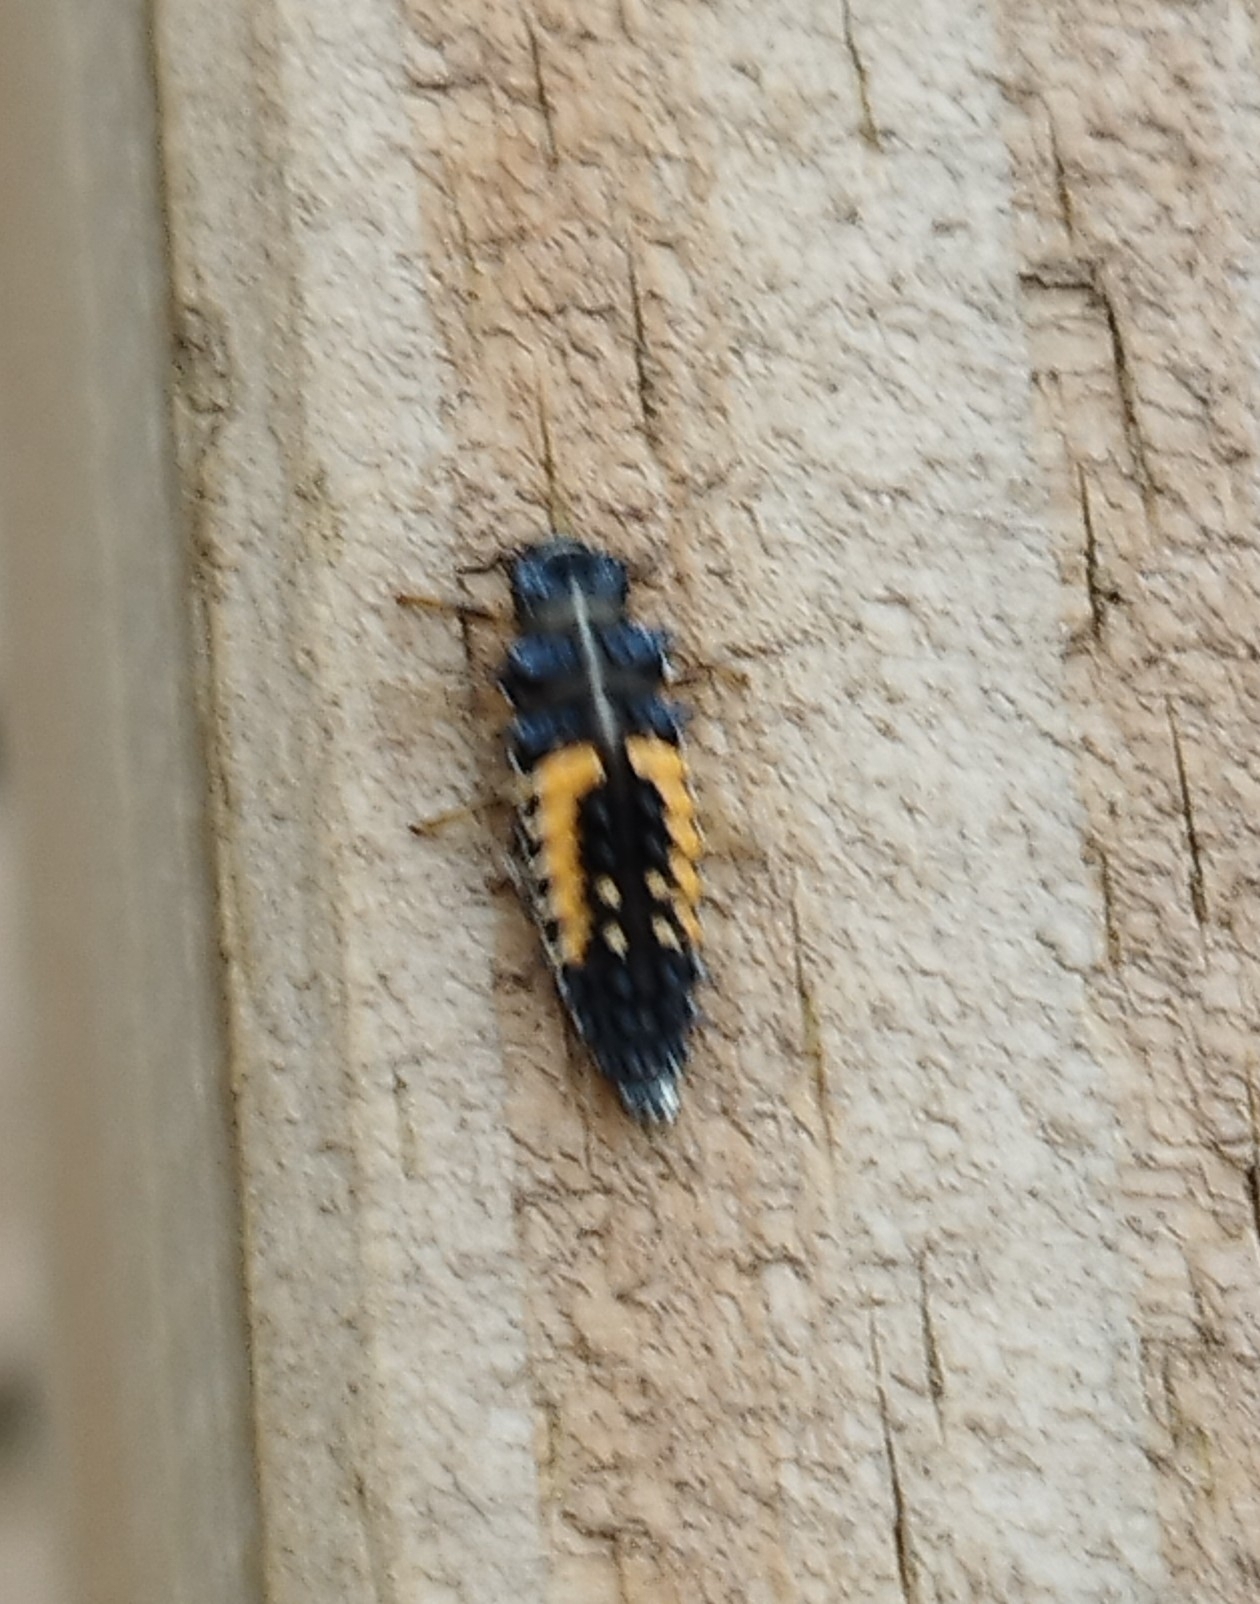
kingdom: Animalia
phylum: Arthropoda
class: Insecta
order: Coleoptera
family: Coccinellidae
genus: Harmonia
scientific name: Harmonia axyridis
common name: Harlequin ladybird
